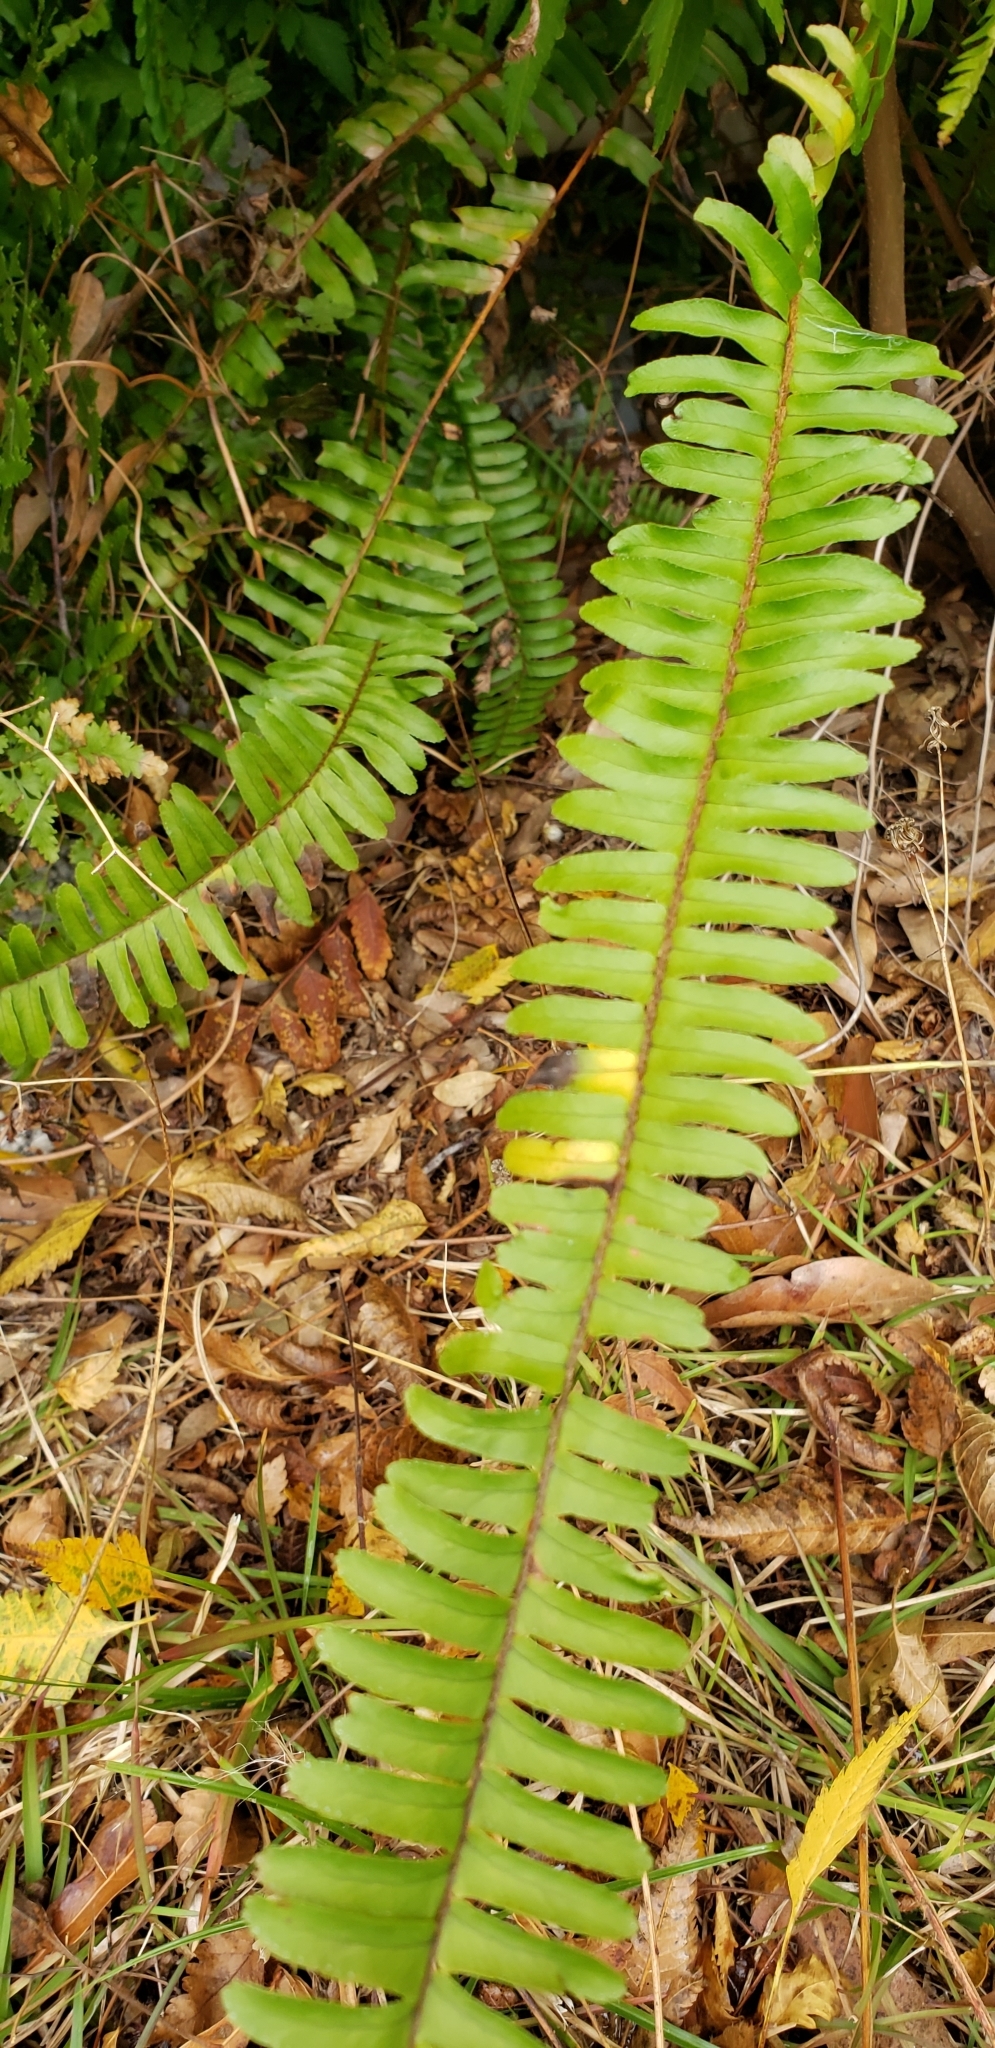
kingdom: Plantae
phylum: Tracheophyta
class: Polypodiopsida
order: Polypodiales
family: Nephrolepidaceae
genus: Nephrolepis
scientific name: Nephrolepis cordifolia
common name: Narrow swordfern
